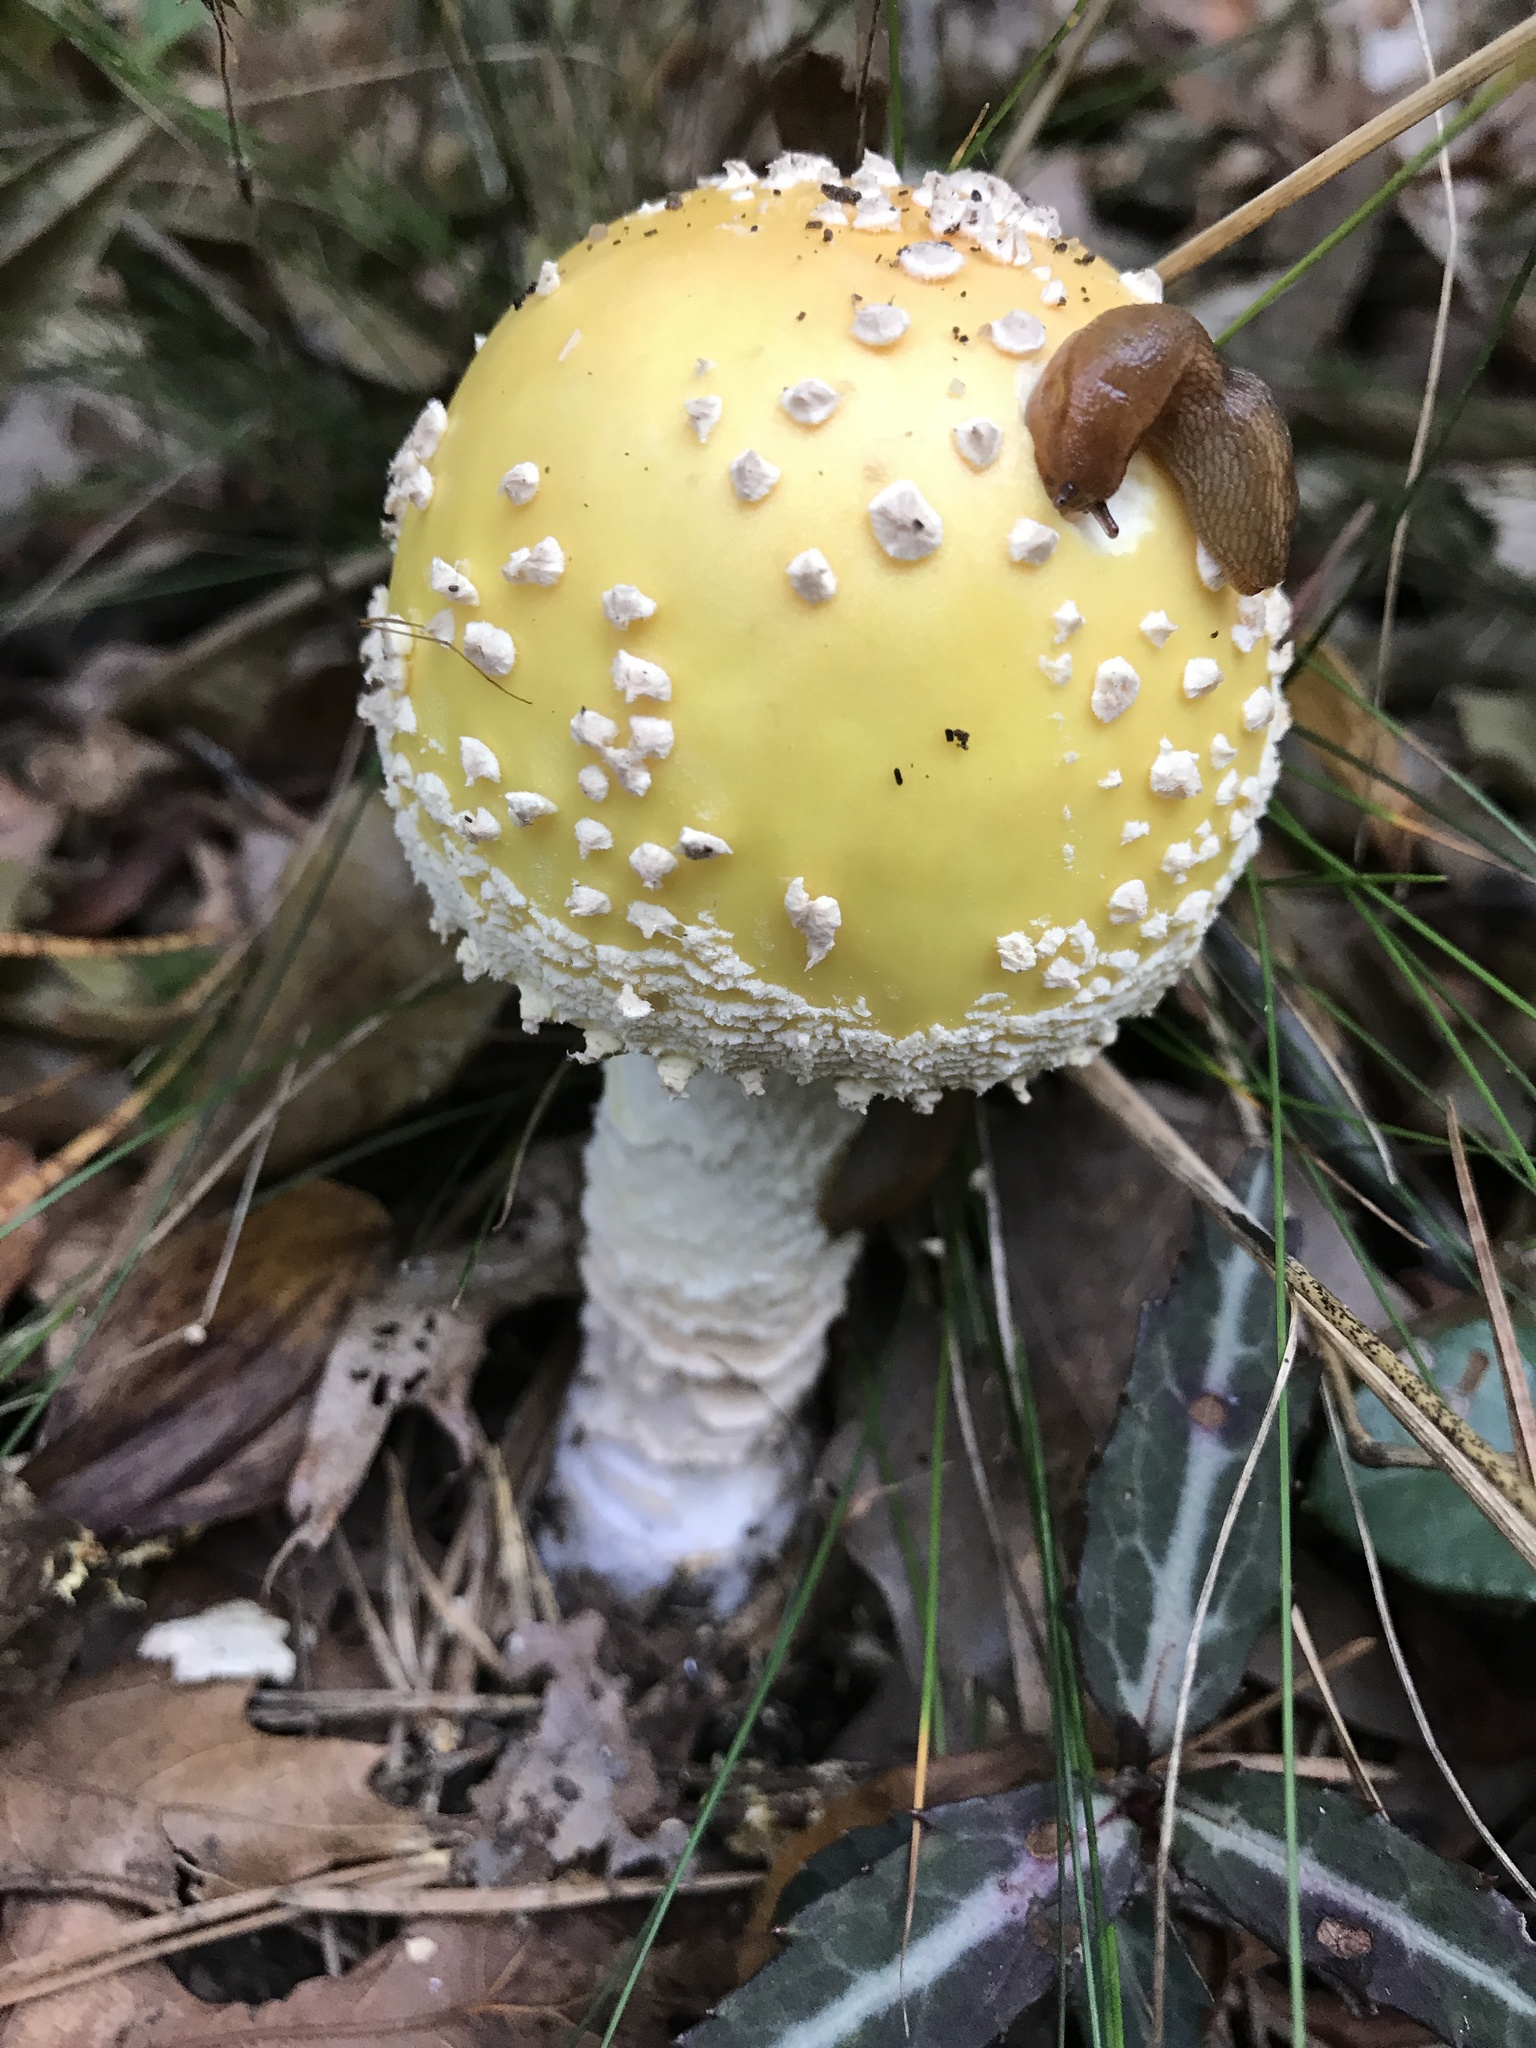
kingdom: Fungi
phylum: Basidiomycota
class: Agaricomycetes
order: Agaricales
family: Amanitaceae
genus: Amanita
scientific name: Amanita muscaria
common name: Fly agaric
